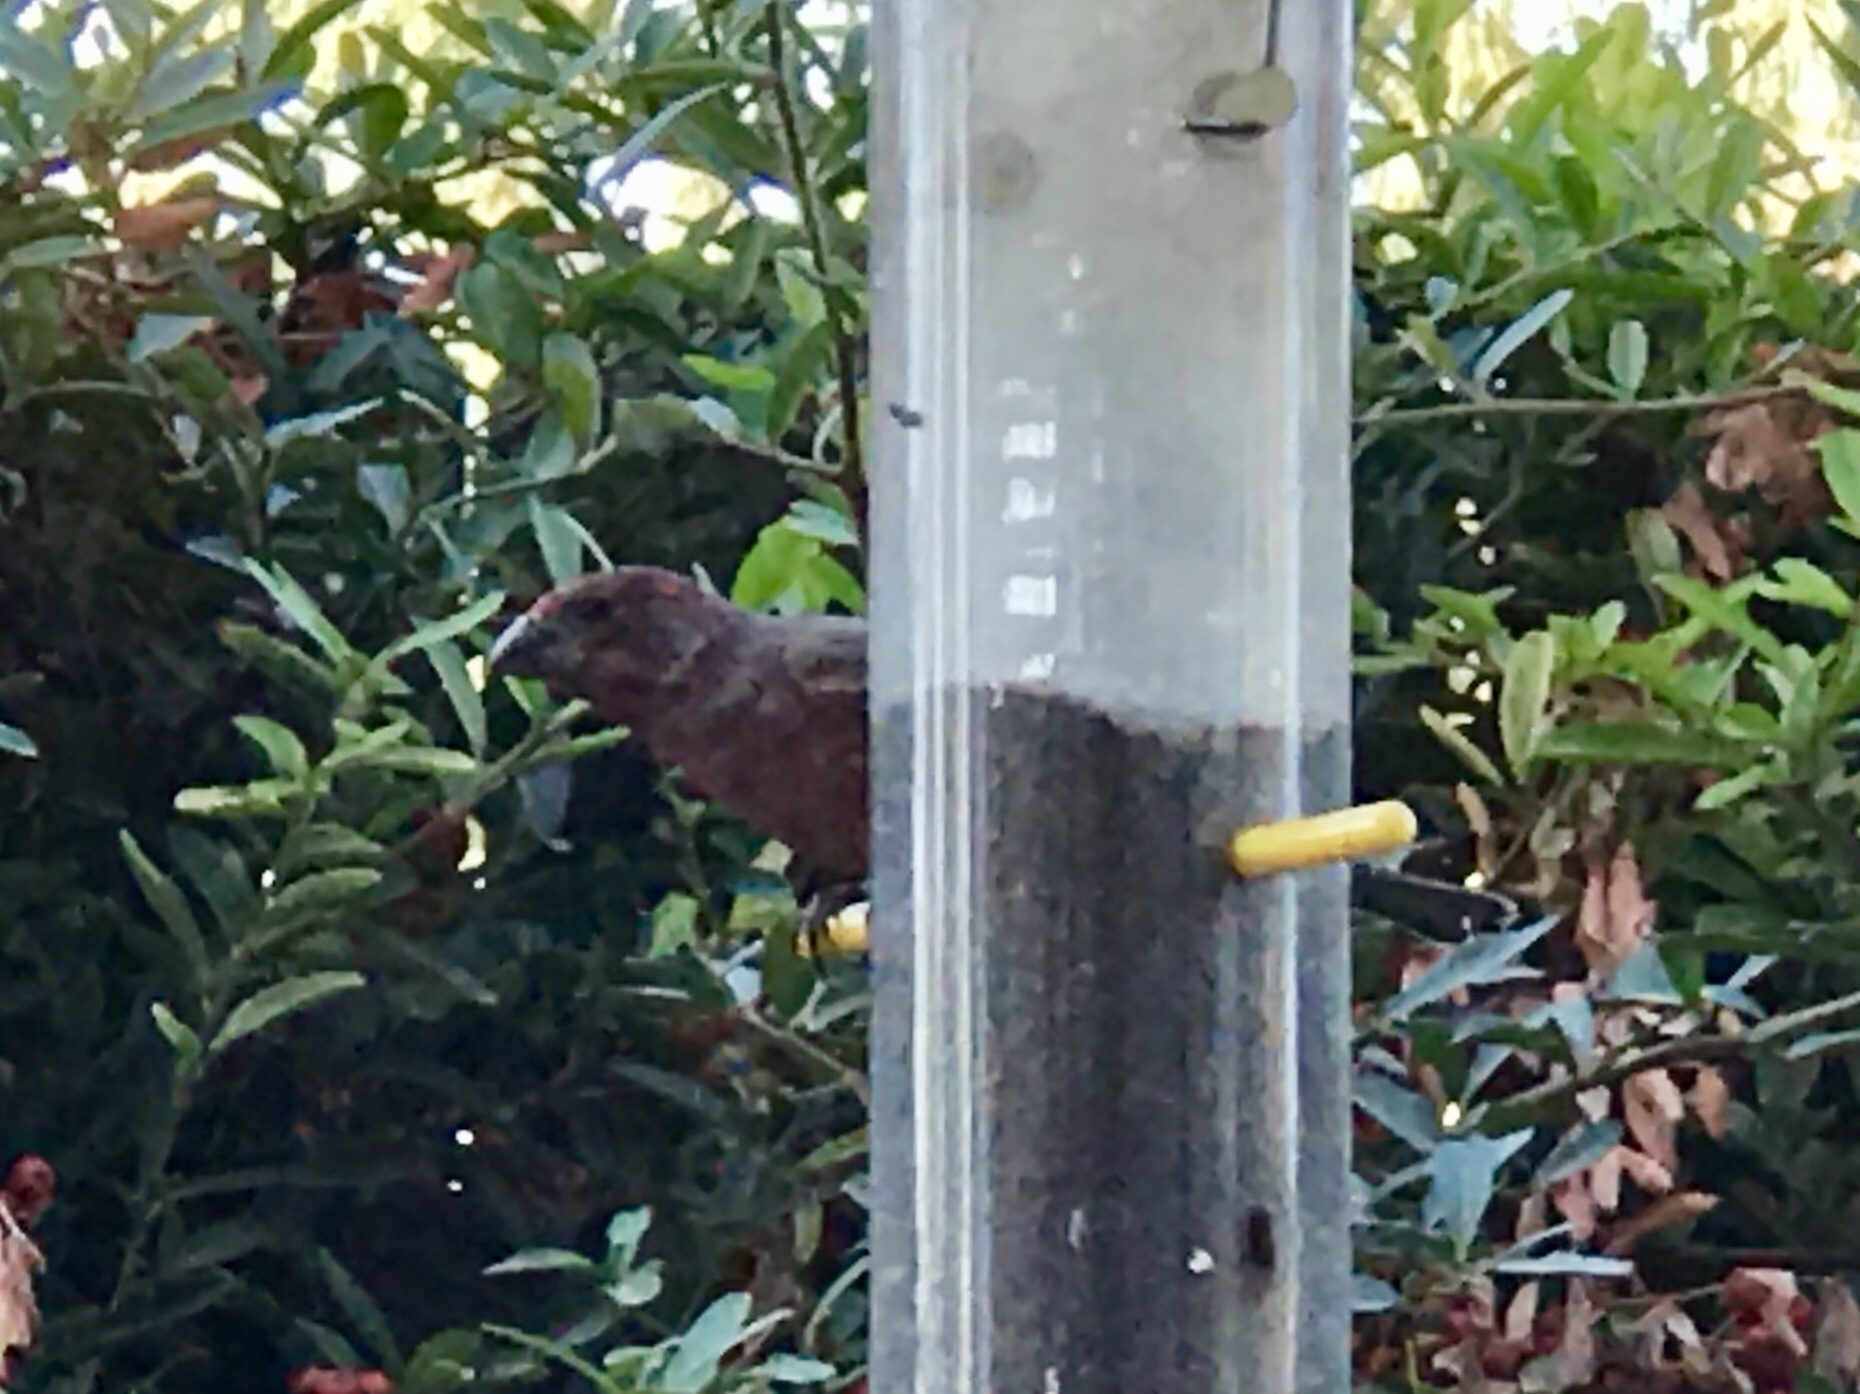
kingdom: Animalia
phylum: Chordata
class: Aves
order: Passeriformes
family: Fringillidae
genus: Haemorhous
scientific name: Haemorhous mexicanus
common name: House finch
